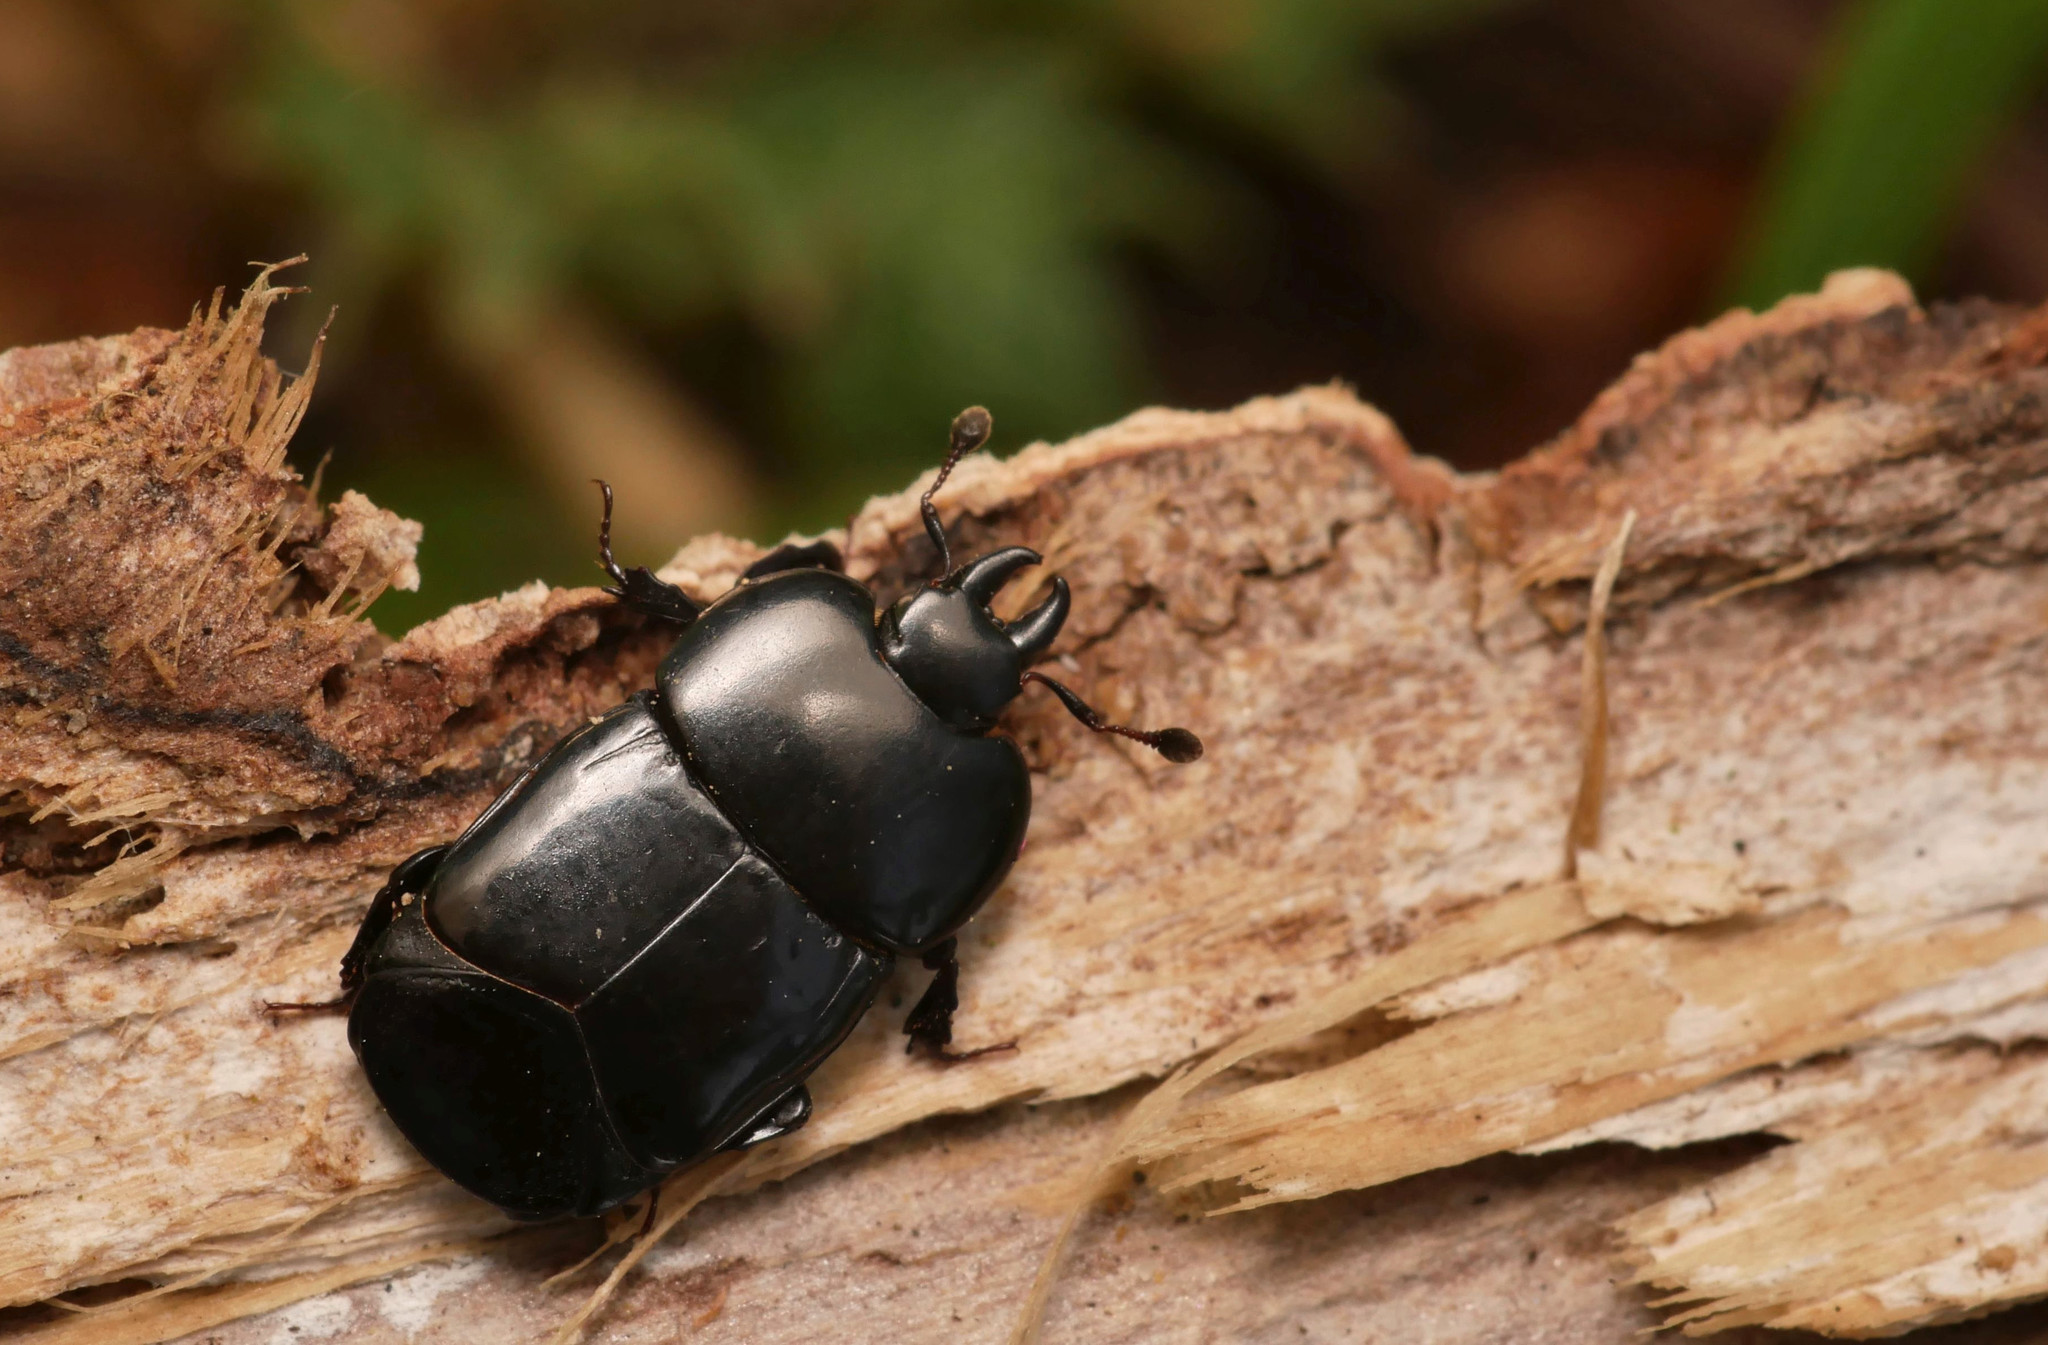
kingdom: Animalia
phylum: Arthropoda
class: Insecta
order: Coleoptera
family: Histeridae
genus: Hololepta
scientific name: Hololepta plana
